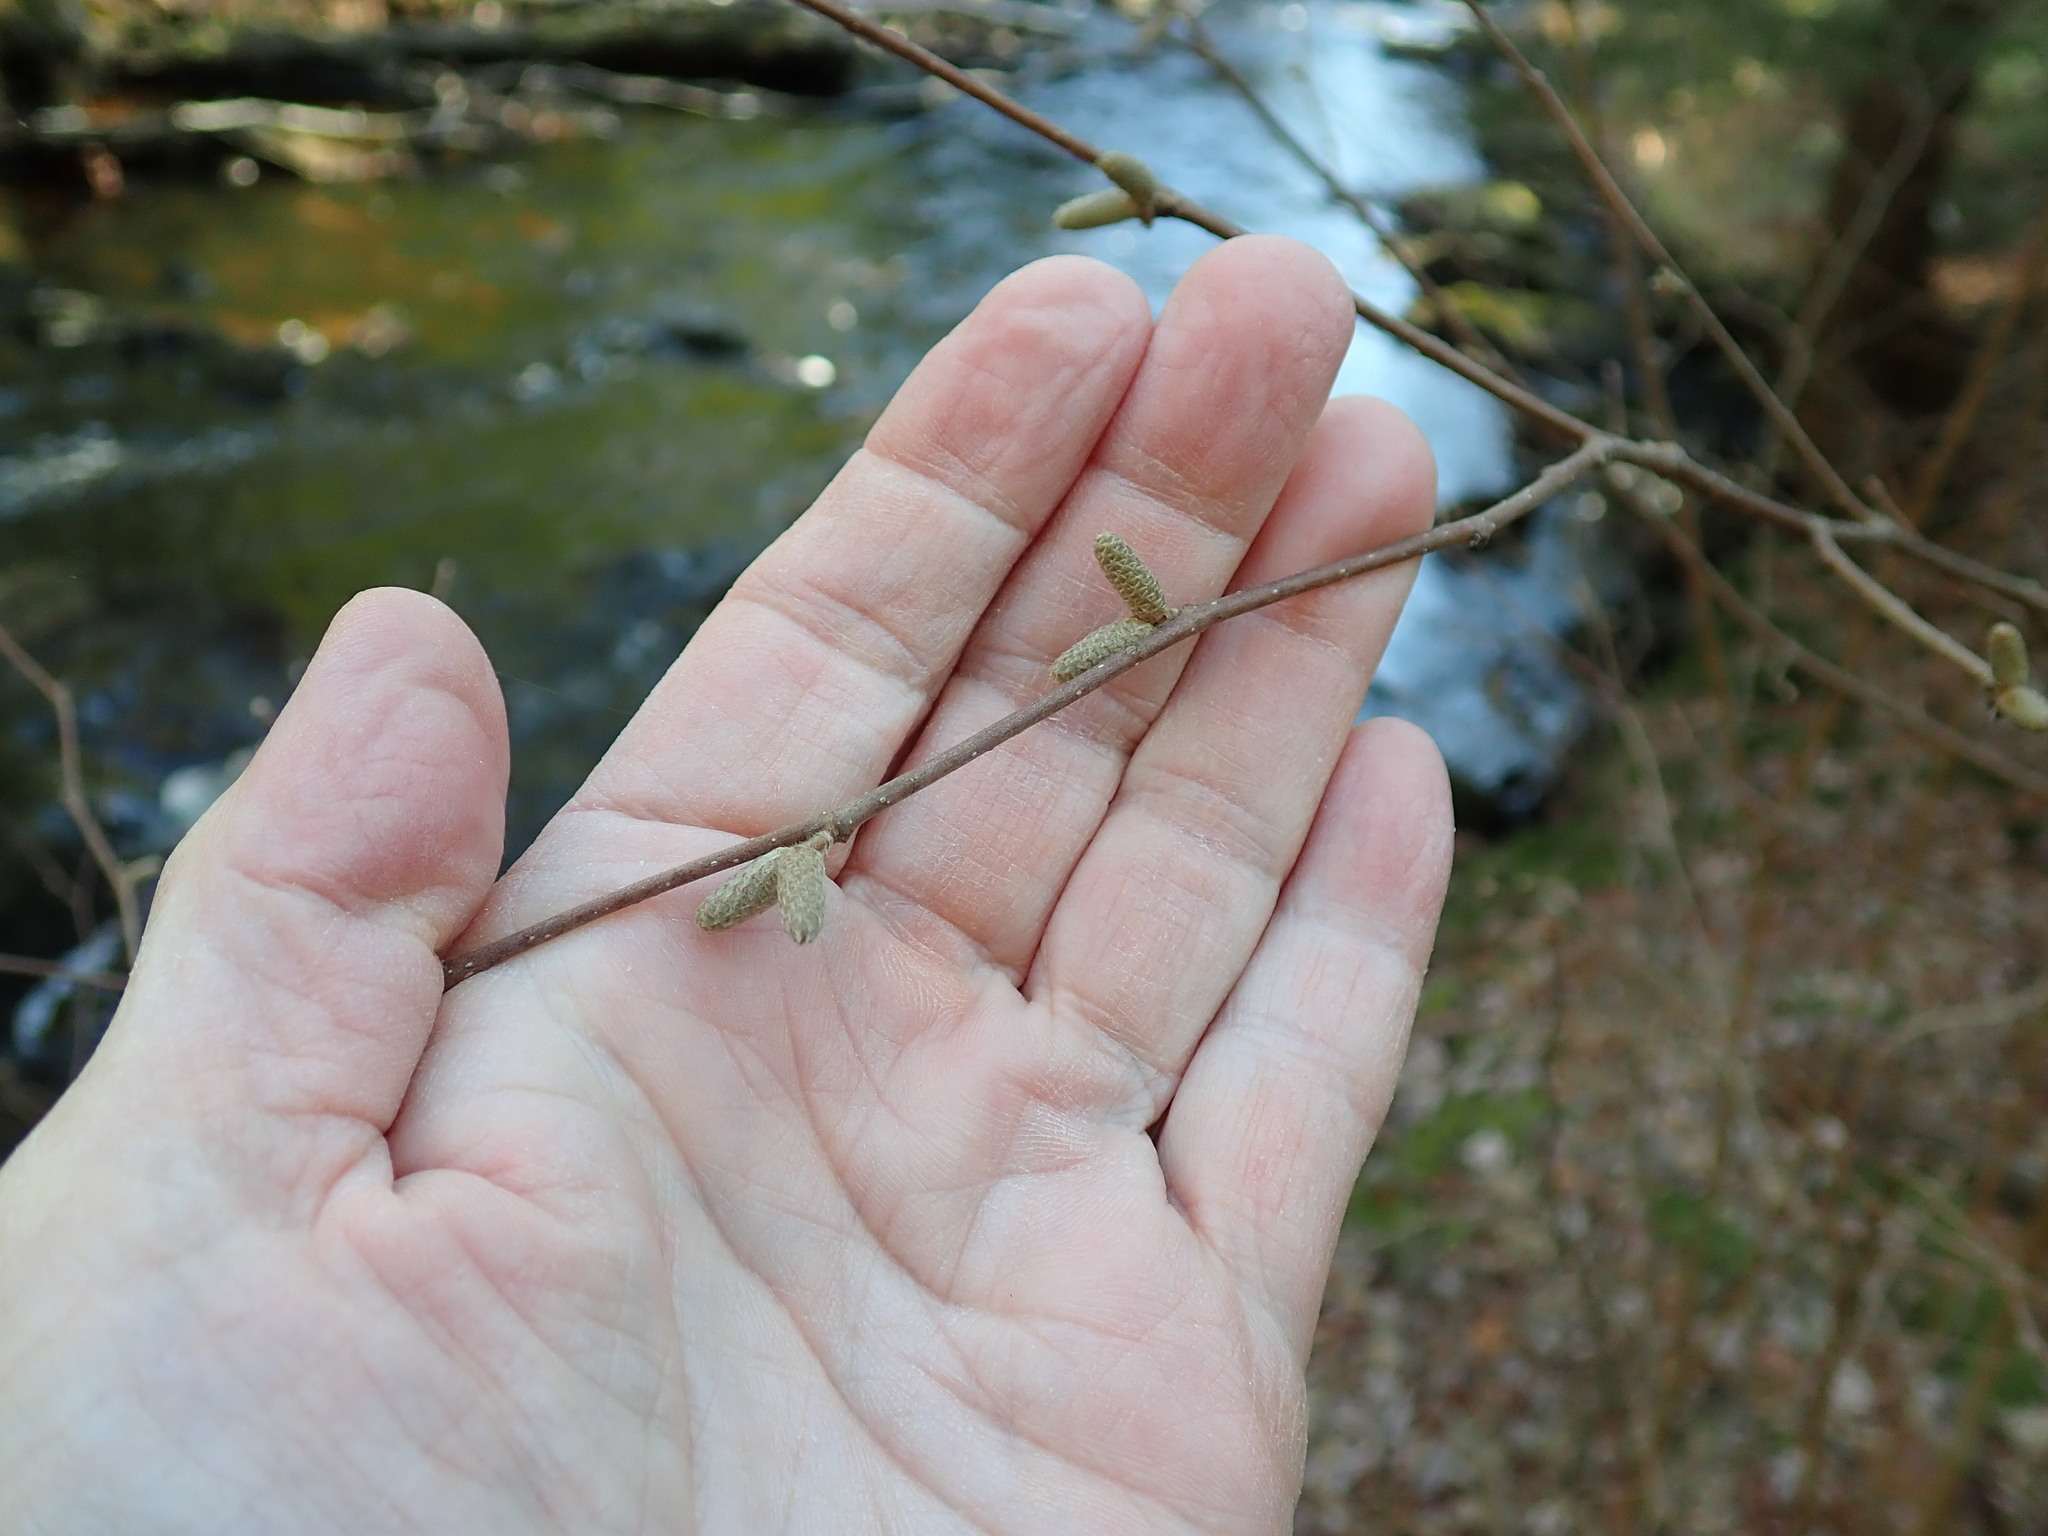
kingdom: Plantae
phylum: Tracheophyta
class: Magnoliopsida
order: Fagales
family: Betulaceae
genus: Corylus
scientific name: Corylus cornuta
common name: Beaked hazel
